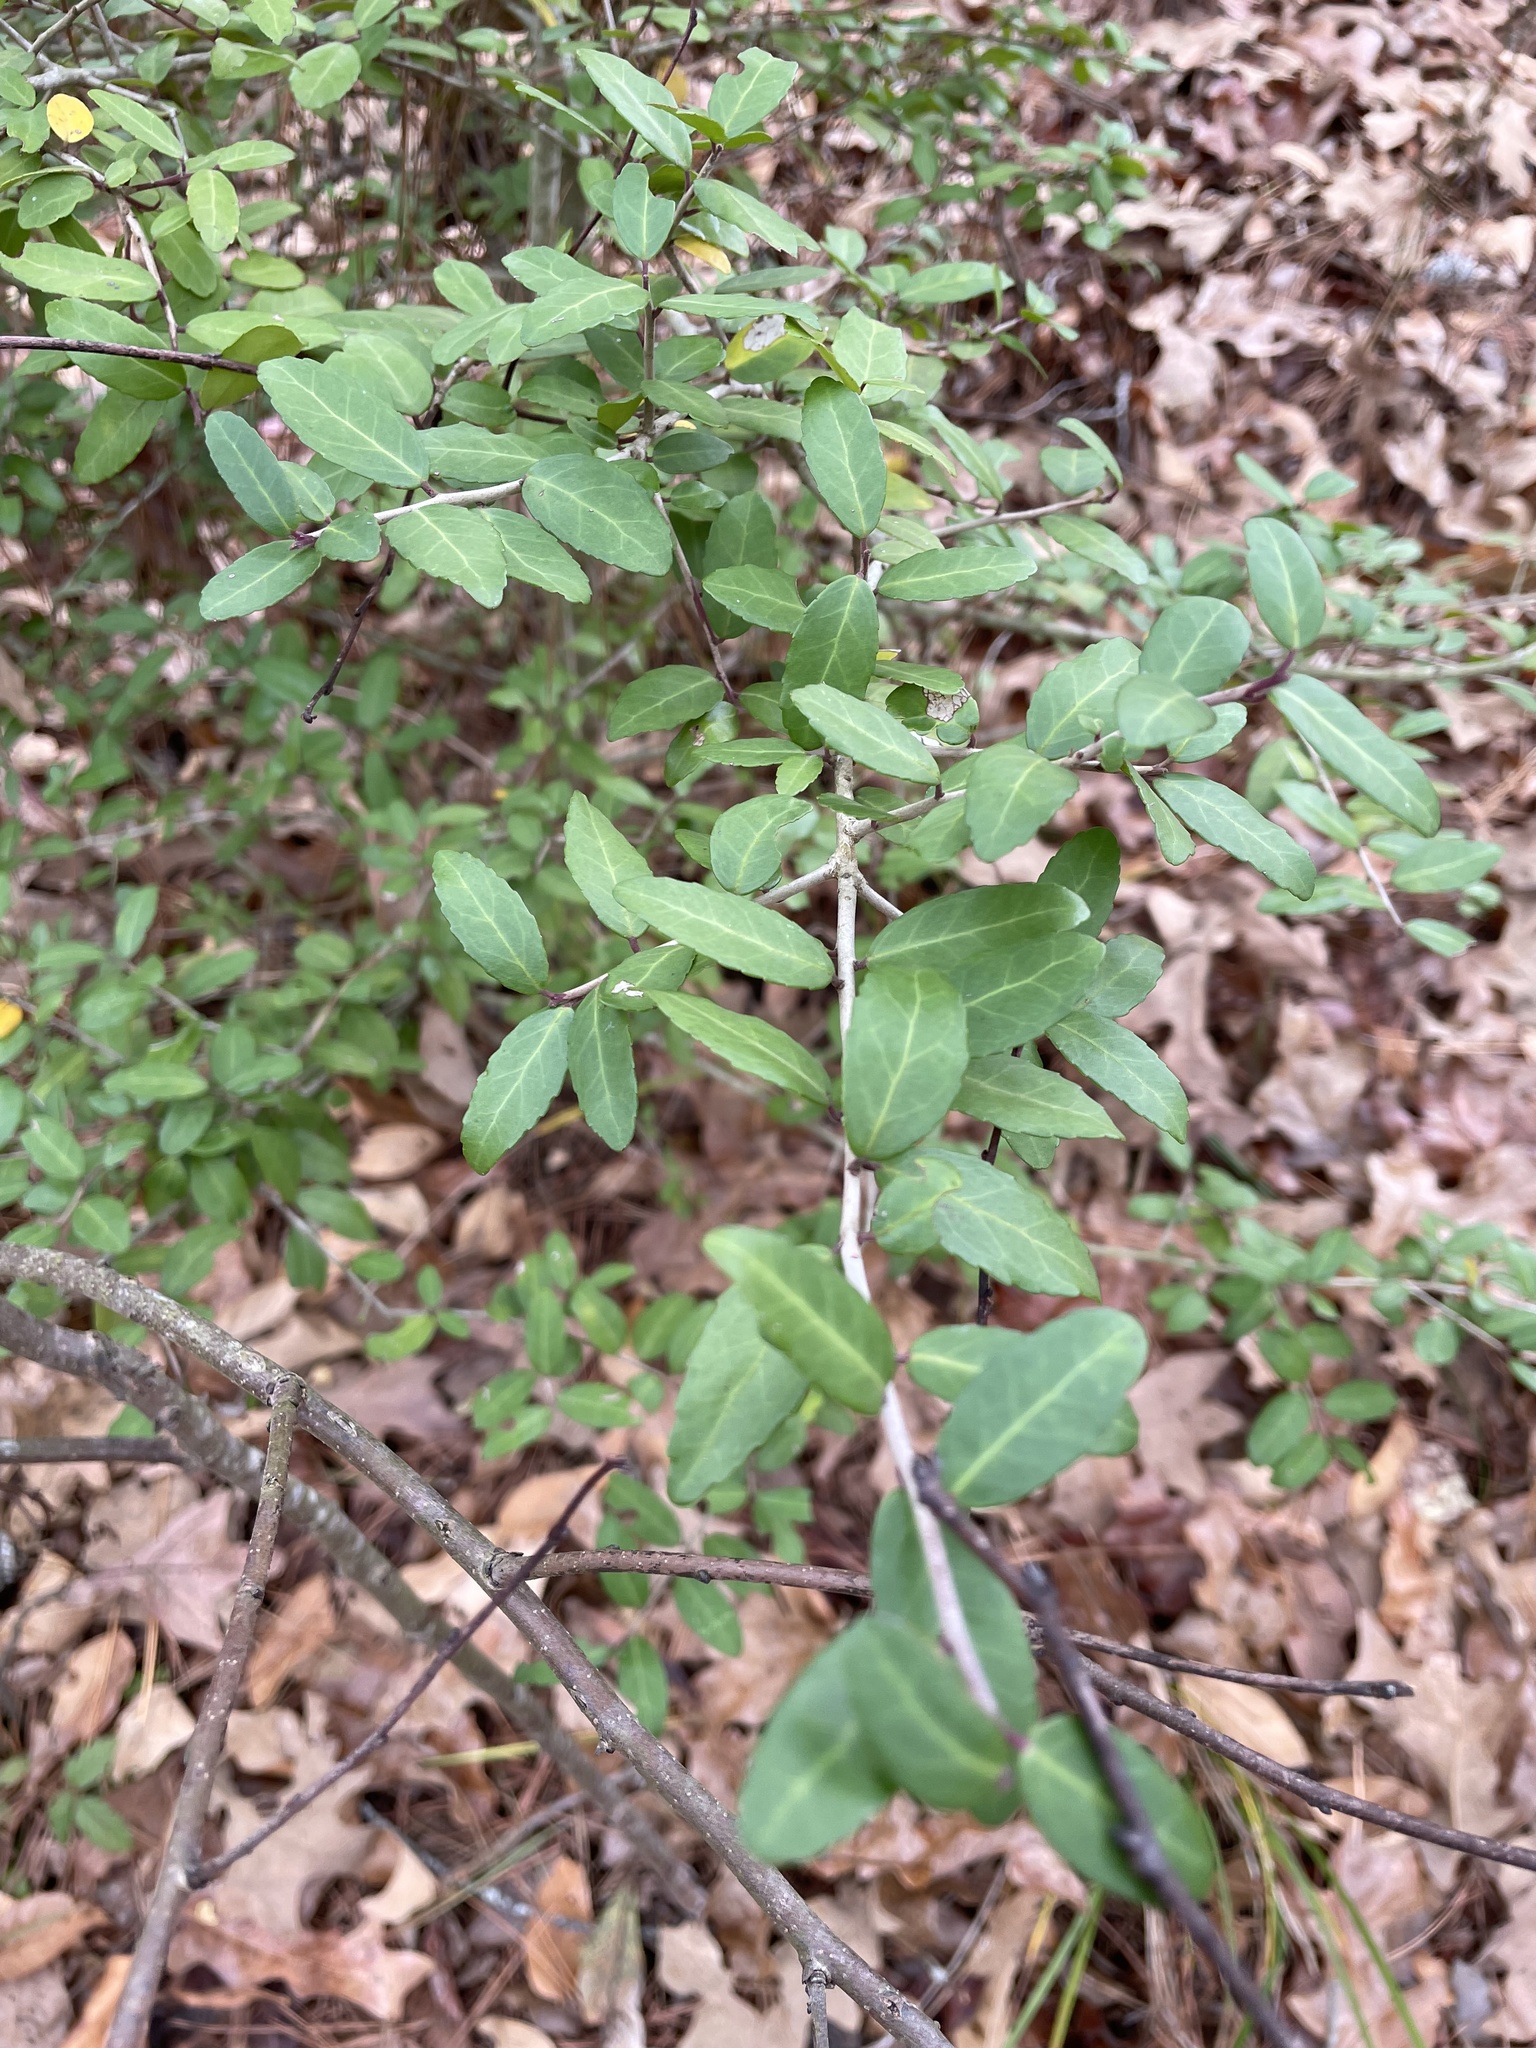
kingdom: Plantae
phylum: Tracheophyta
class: Magnoliopsida
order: Aquifoliales
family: Aquifoliaceae
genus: Ilex
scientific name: Ilex vomitoria
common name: Yaupon holly
